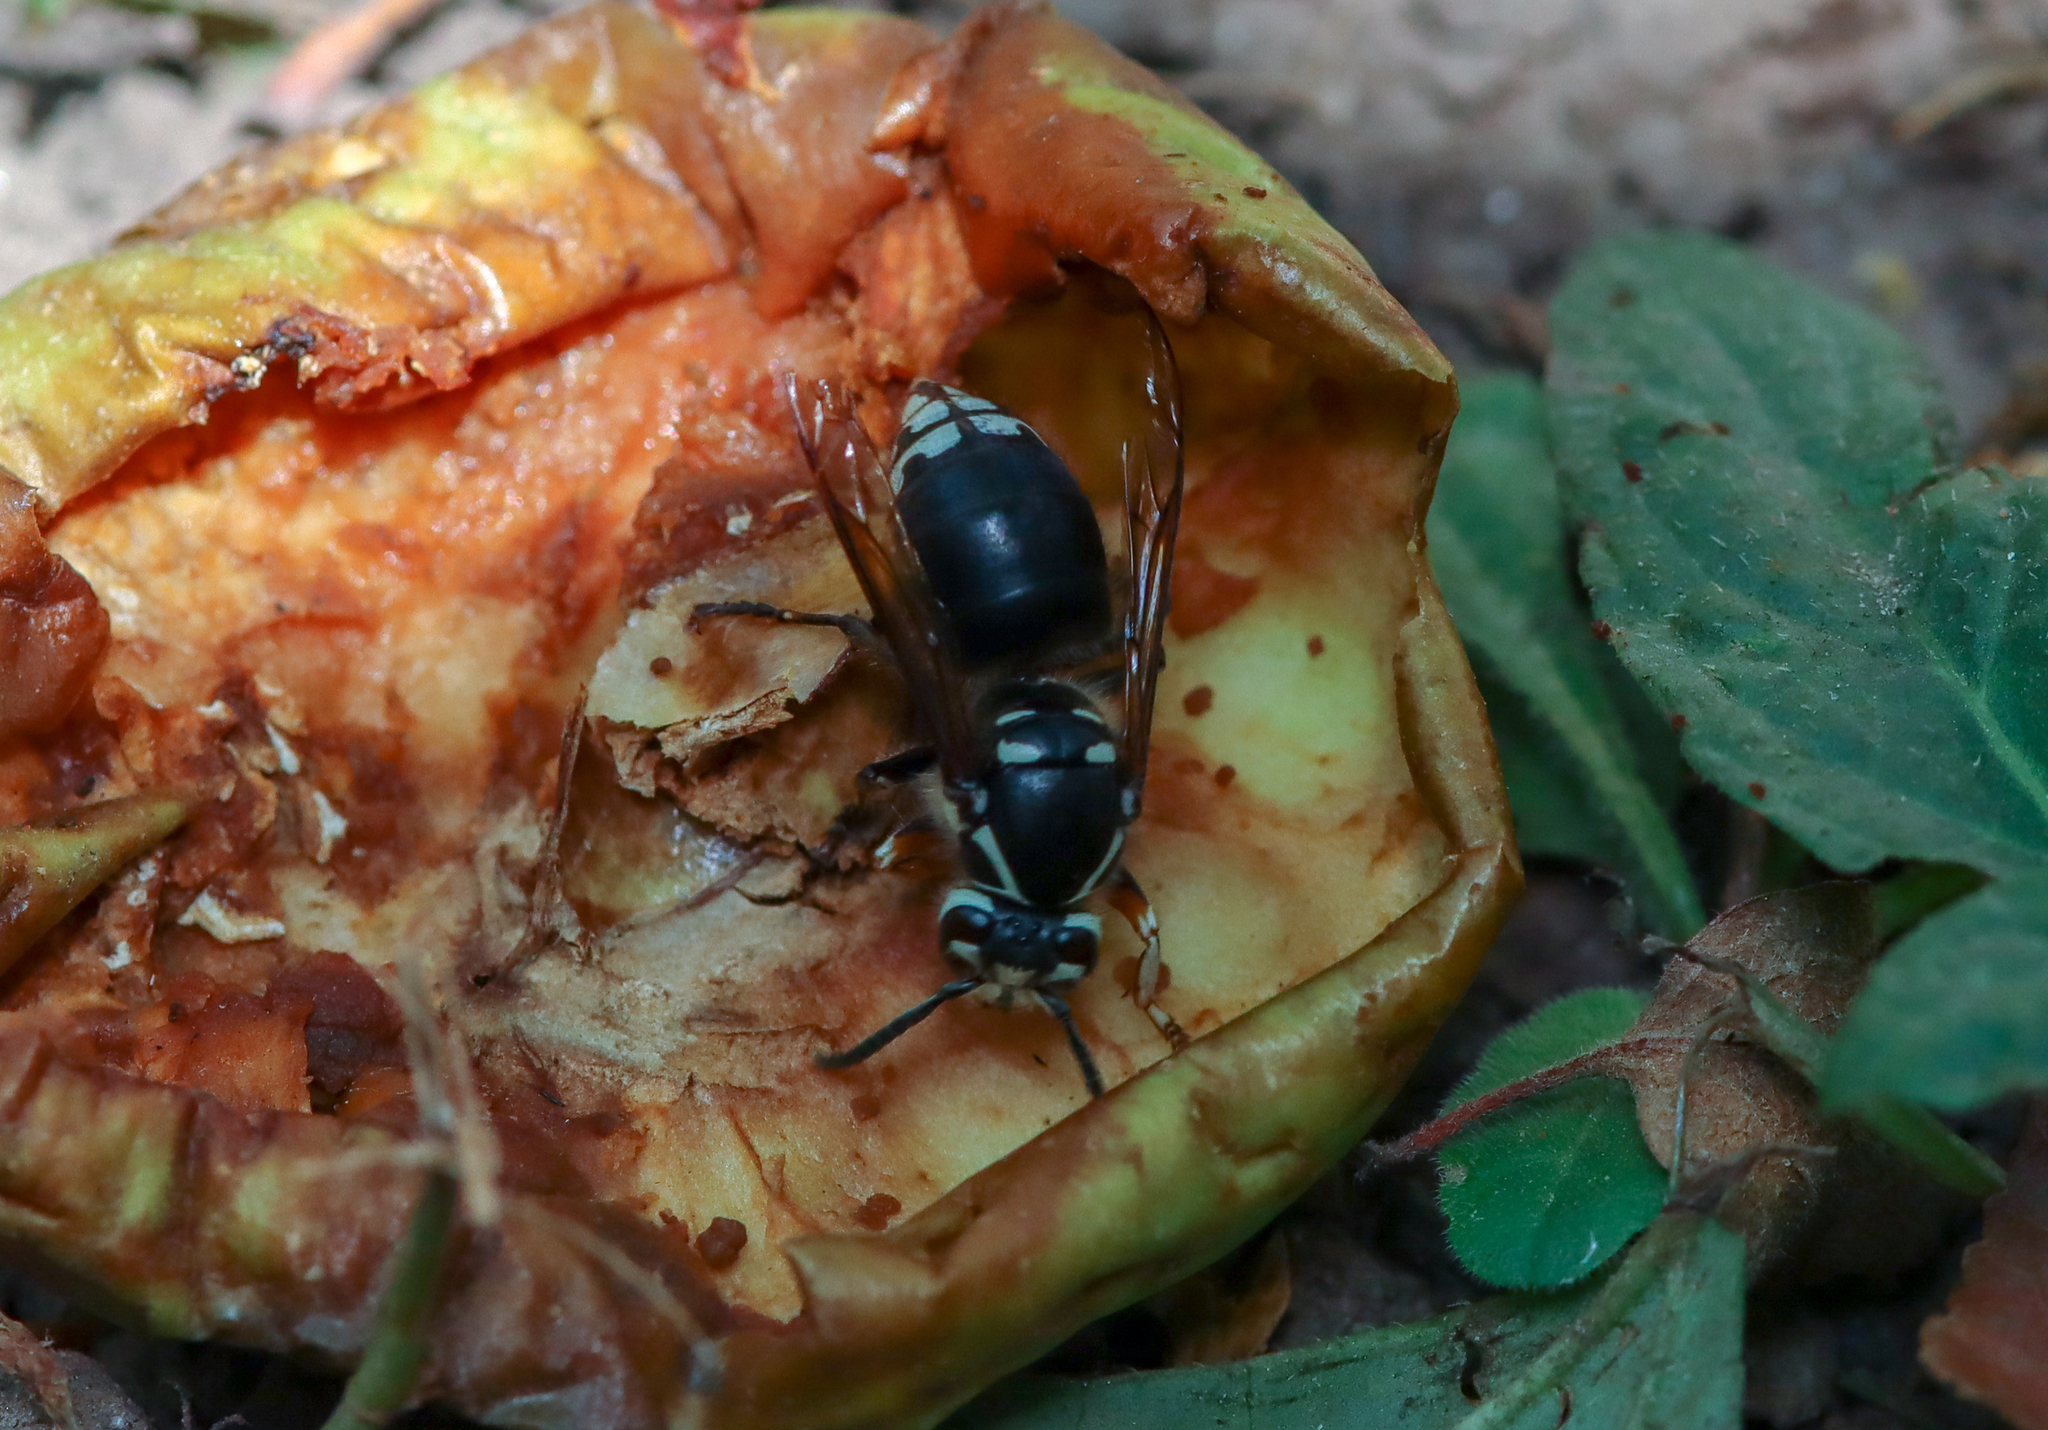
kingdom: Animalia
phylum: Arthropoda
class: Insecta
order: Hymenoptera
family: Vespidae
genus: Dolichovespula
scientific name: Dolichovespula maculata
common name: Bald-faced hornet
